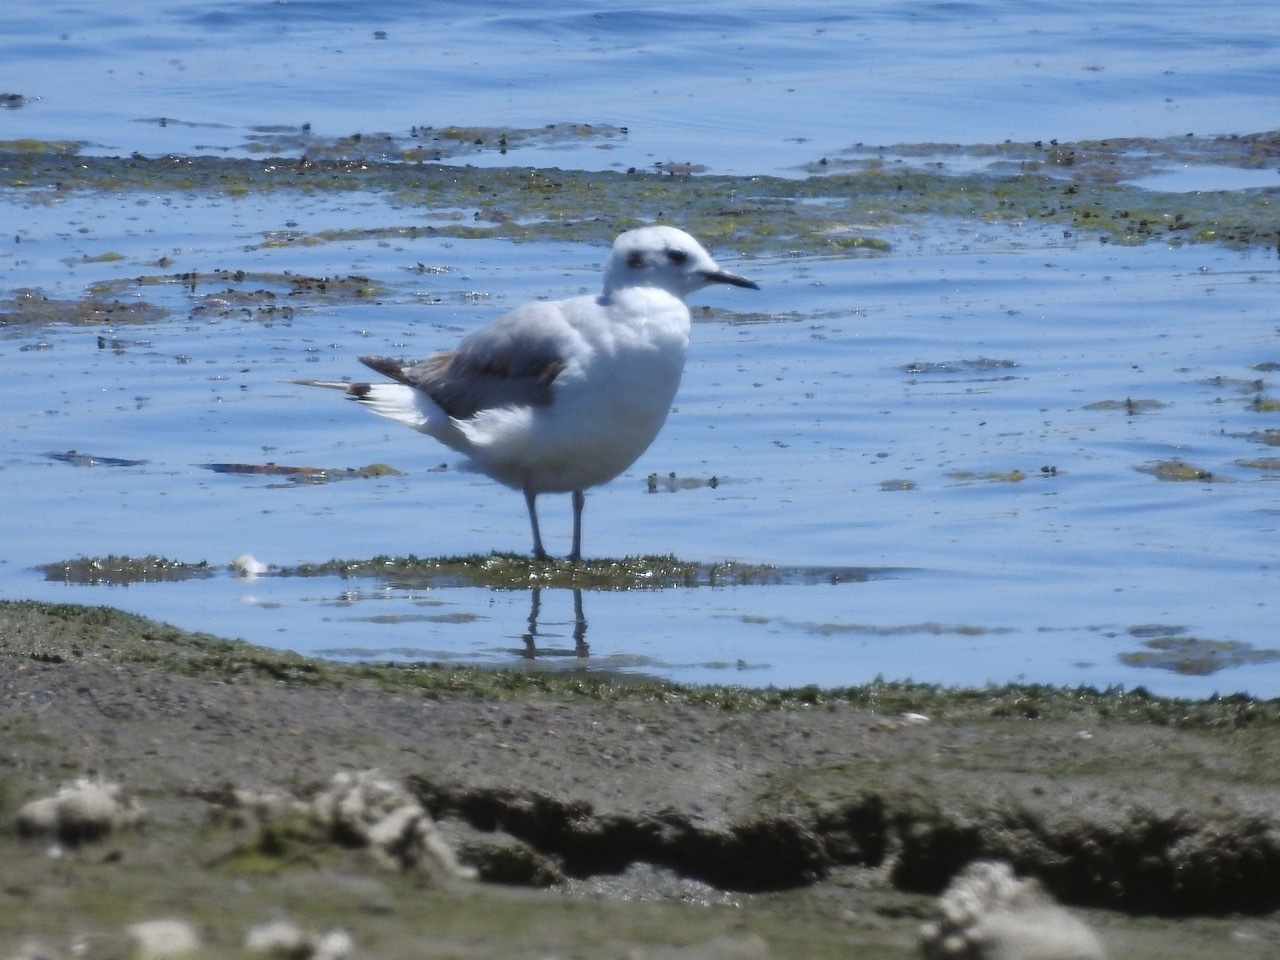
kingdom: Animalia
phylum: Chordata
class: Aves
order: Charadriiformes
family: Laridae
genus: Chroicocephalus
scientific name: Chroicocephalus philadelphia
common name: Bonaparte's gull
